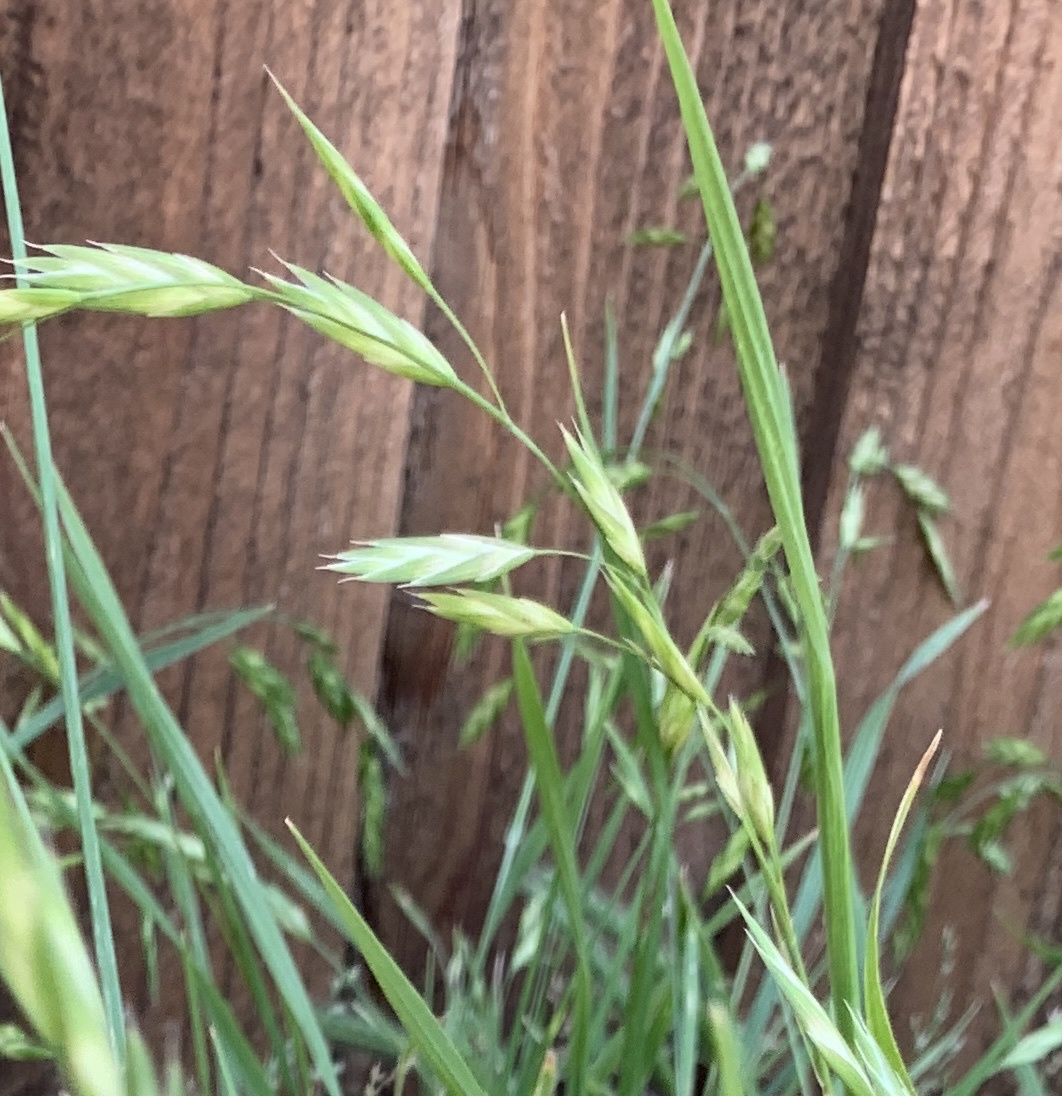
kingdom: Plantae
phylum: Tracheophyta
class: Liliopsida
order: Poales
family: Poaceae
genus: Bromus
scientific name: Bromus catharticus
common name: Rescuegrass
